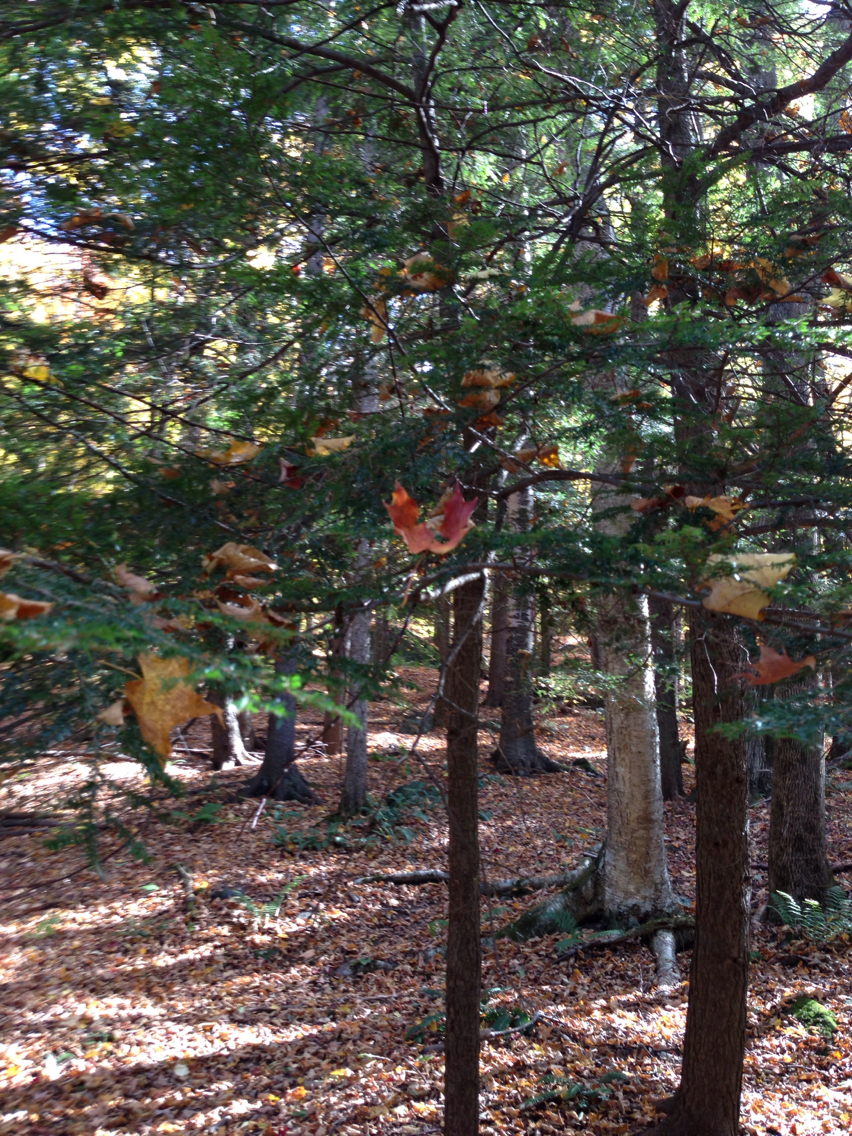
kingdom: Plantae
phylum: Tracheophyta
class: Pinopsida
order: Pinales
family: Pinaceae
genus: Tsuga
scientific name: Tsuga canadensis
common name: Eastern hemlock
